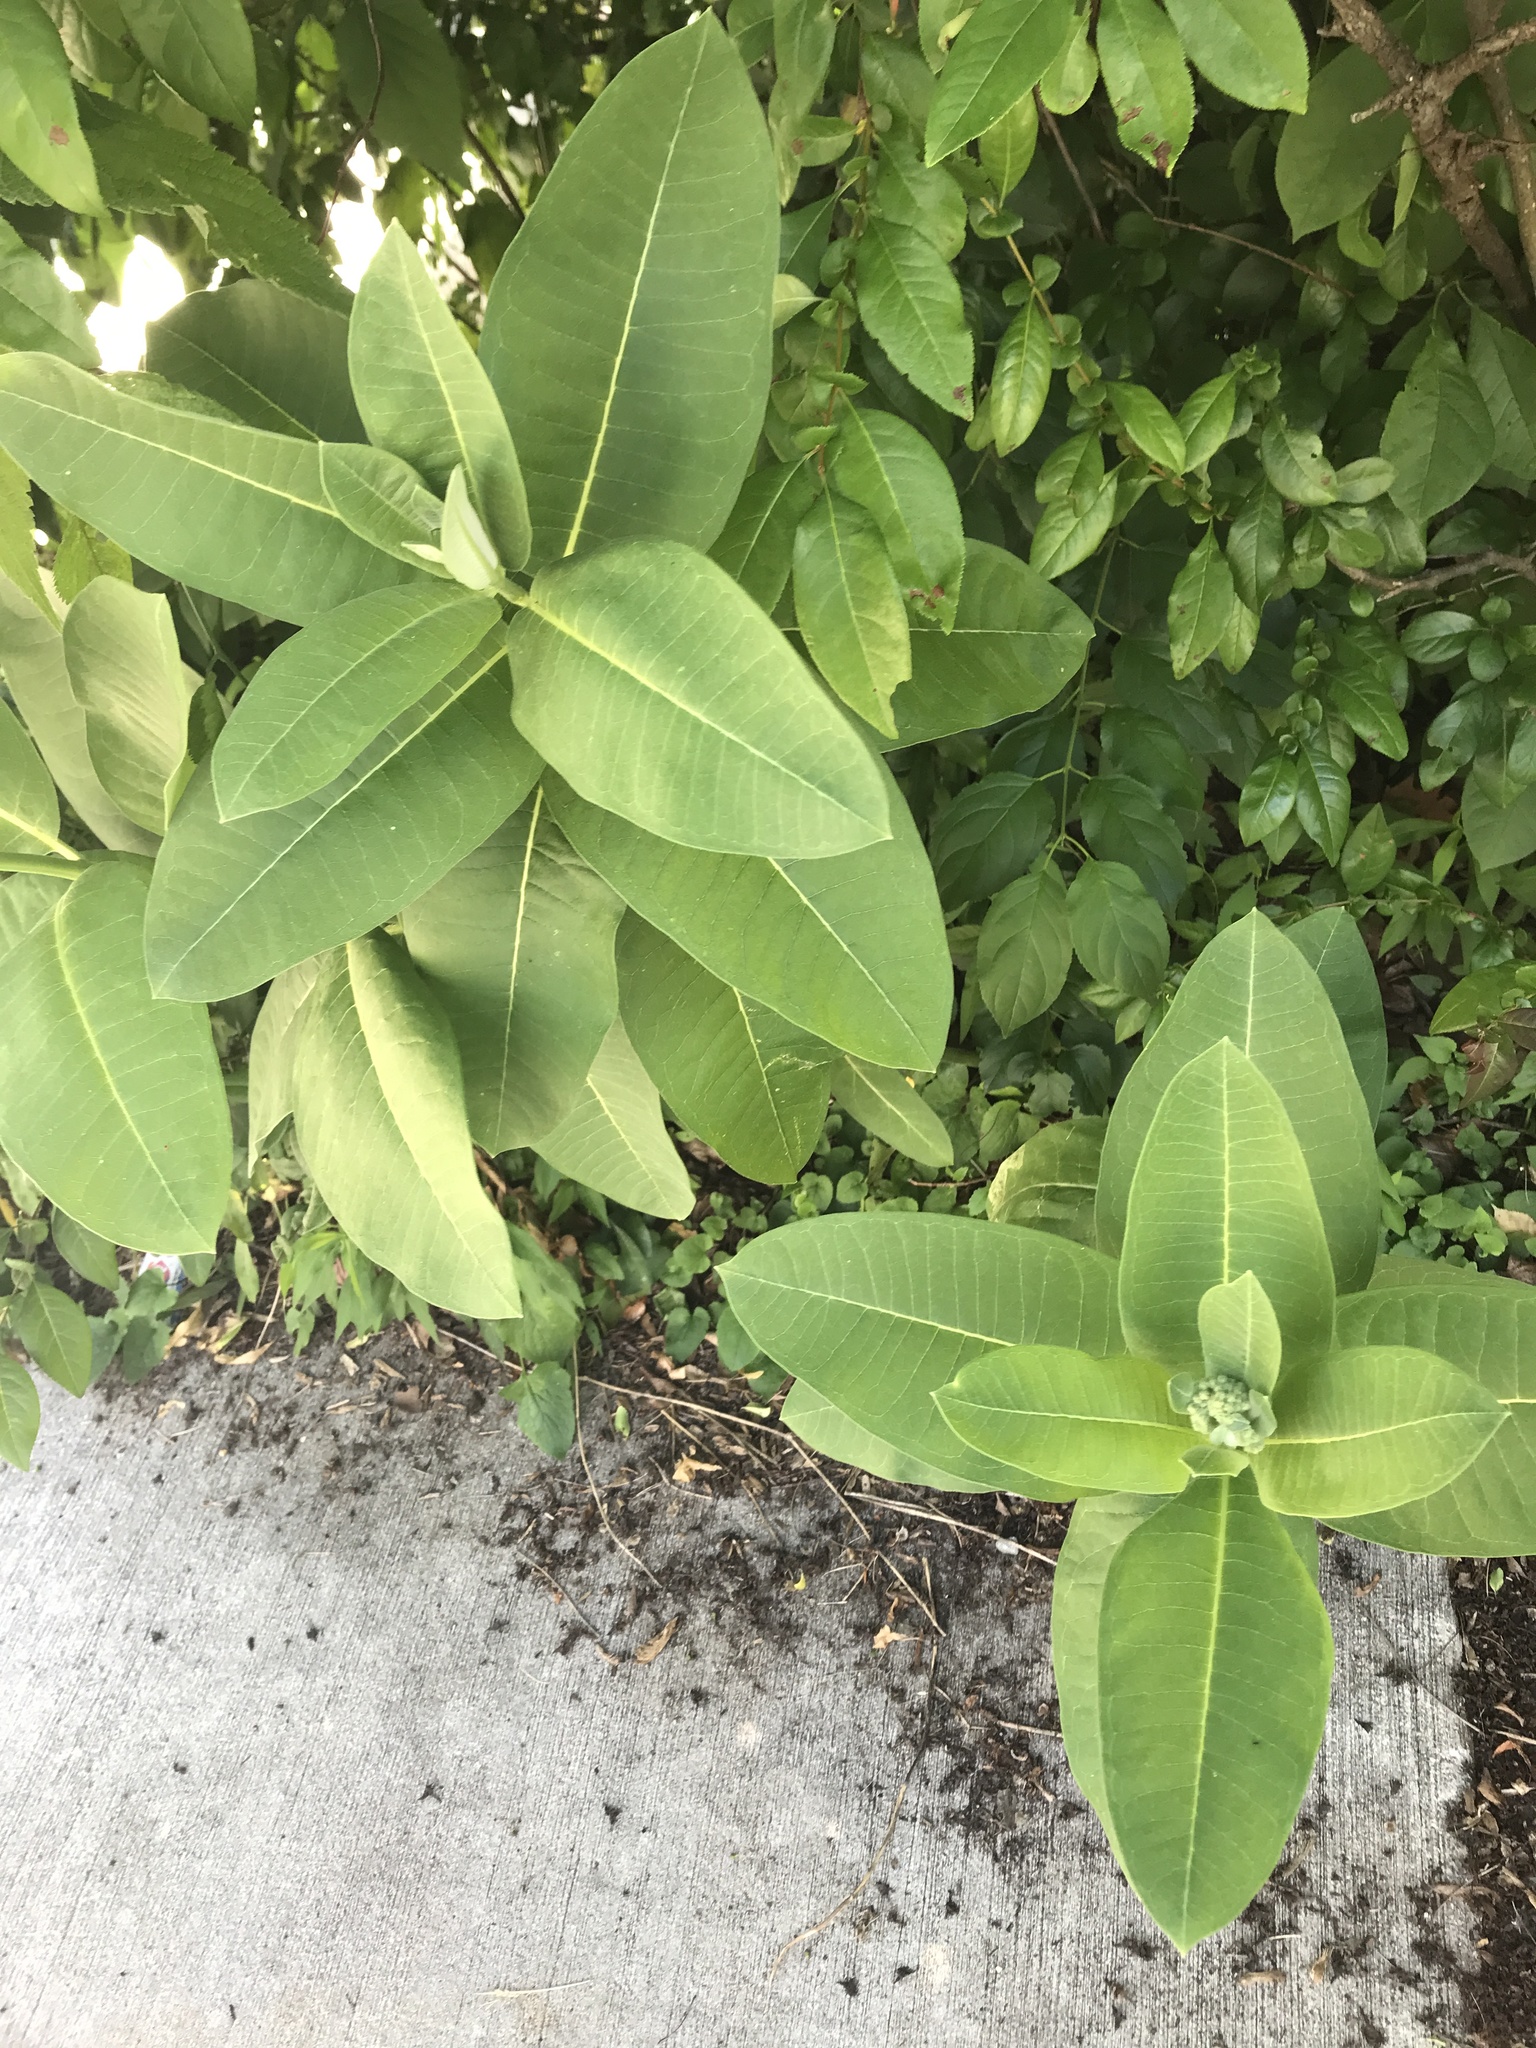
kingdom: Plantae
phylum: Tracheophyta
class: Magnoliopsida
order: Gentianales
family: Apocynaceae
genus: Asclepias
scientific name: Asclepias syriaca
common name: Common milkweed
